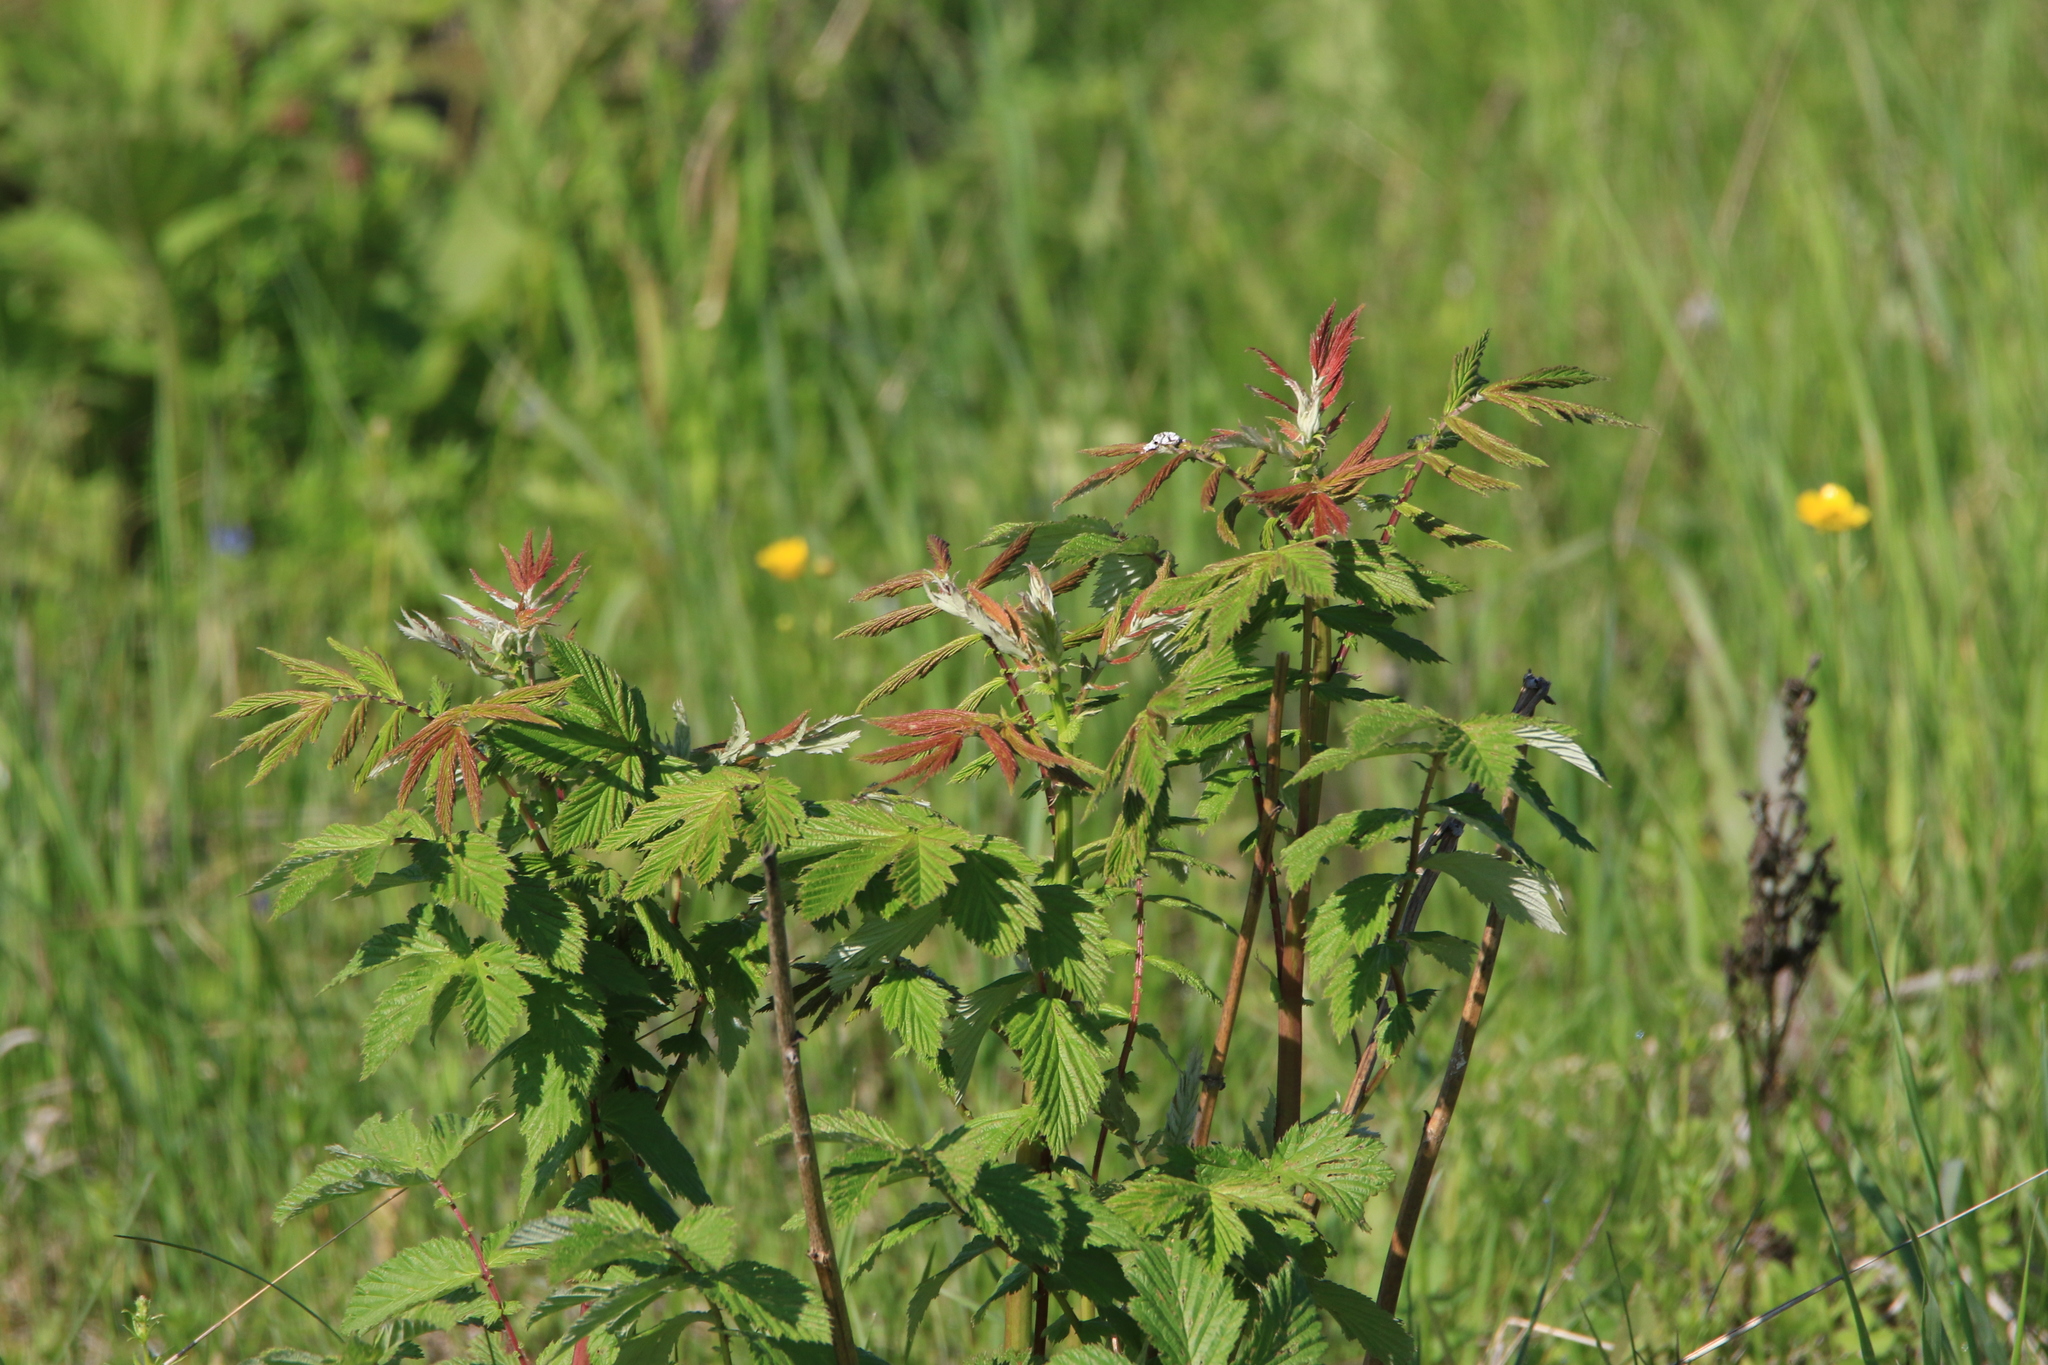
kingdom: Plantae
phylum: Tracheophyta
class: Magnoliopsida
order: Rosales
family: Rosaceae
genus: Filipendula
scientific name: Filipendula ulmaria
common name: Meadowsweet
